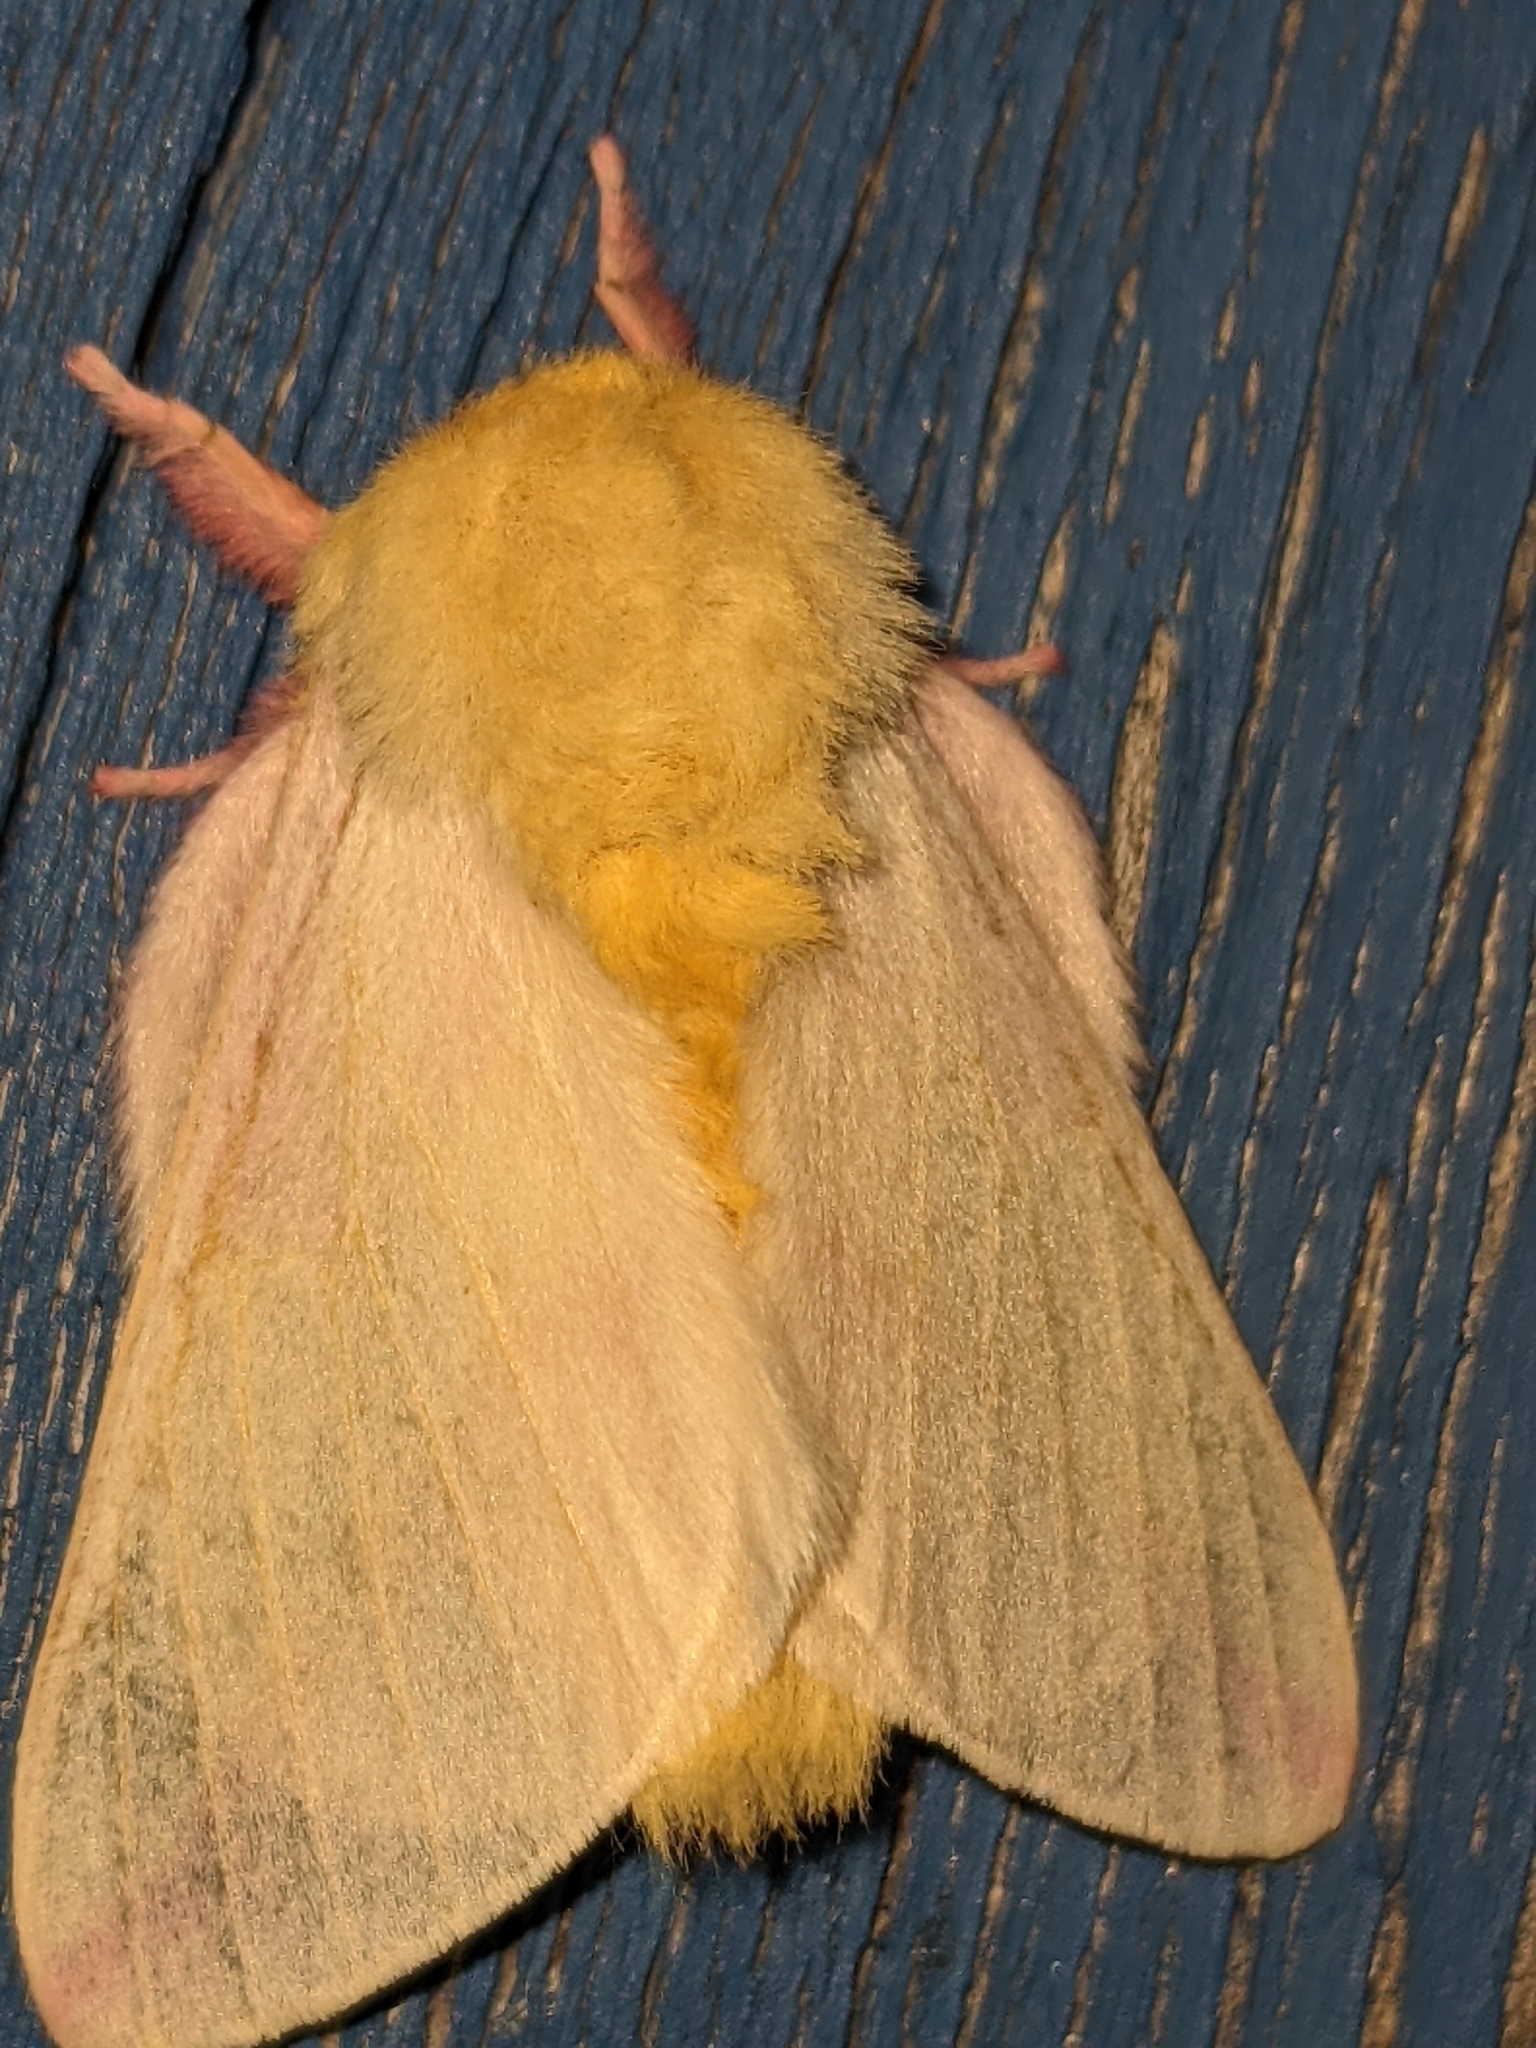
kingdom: Animalia
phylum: Arthropoda
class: Insecta
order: Lepidoptera
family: Saturniidae
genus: Dryocampa
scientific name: Dryocampa rubicunda
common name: Rosy maple moth
